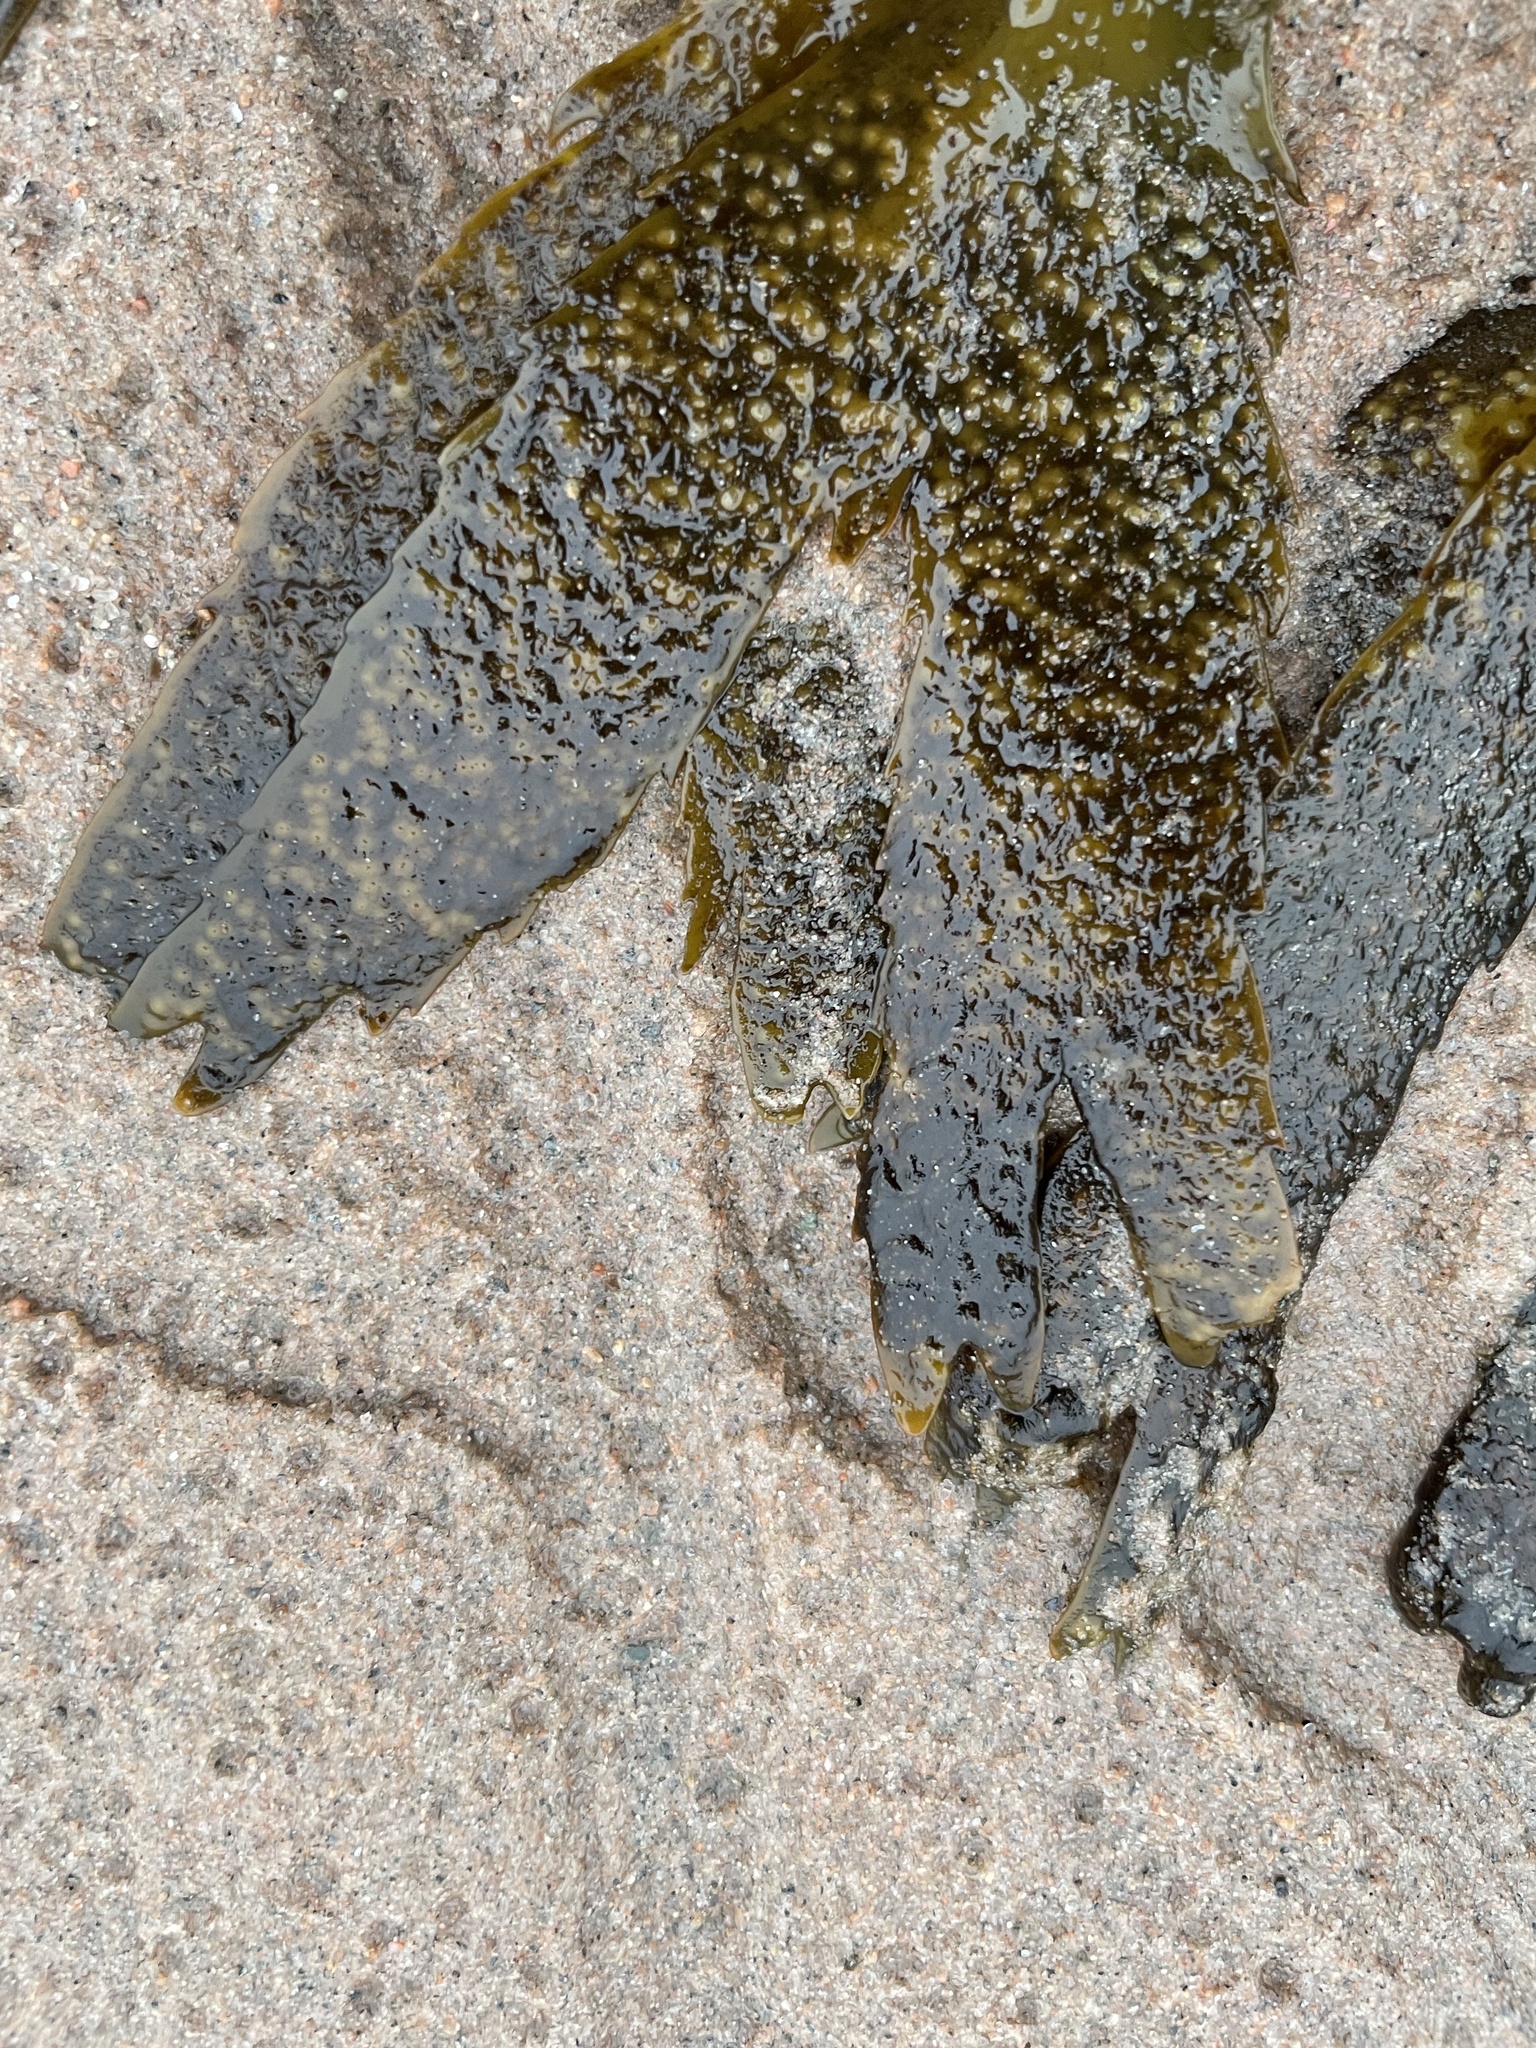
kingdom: Chromista
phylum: Ochrophyta
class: Phaeophyceae
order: Fucales
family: Fucaceae
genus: Fucus
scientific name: Fucus serratus
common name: Toothed wrack
